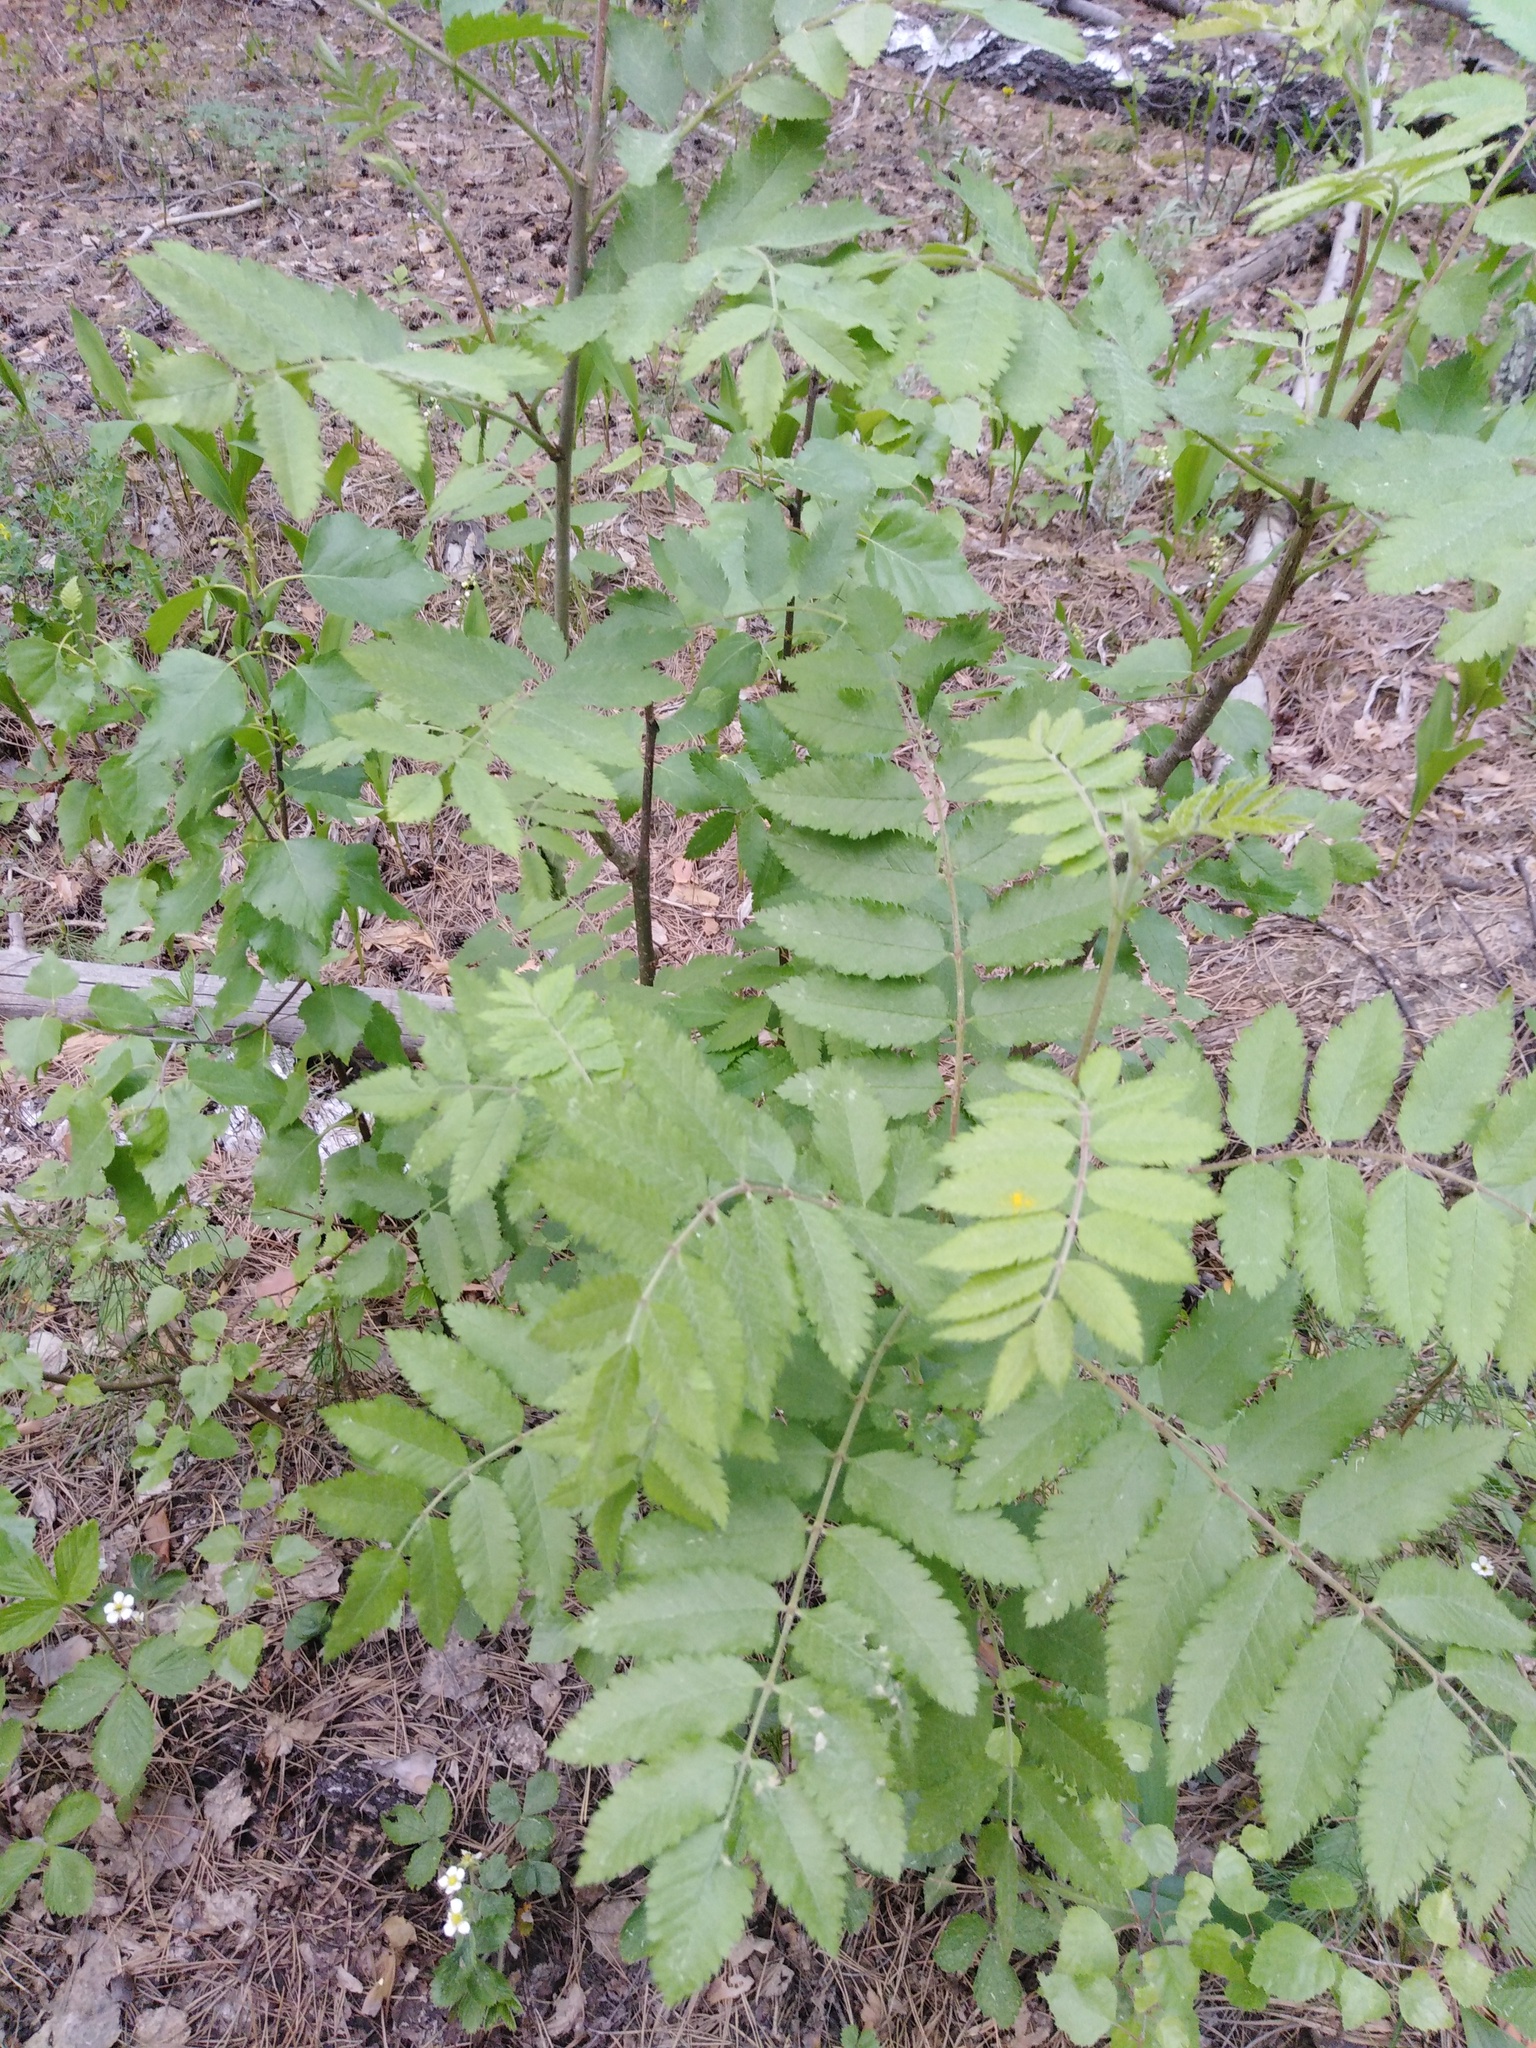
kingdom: Plantae
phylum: Tracheophyta
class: Magnoliopsida
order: Rosales
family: Rosaceae
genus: Sorbus
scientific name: Sorbus aucuparia
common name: Rowan
